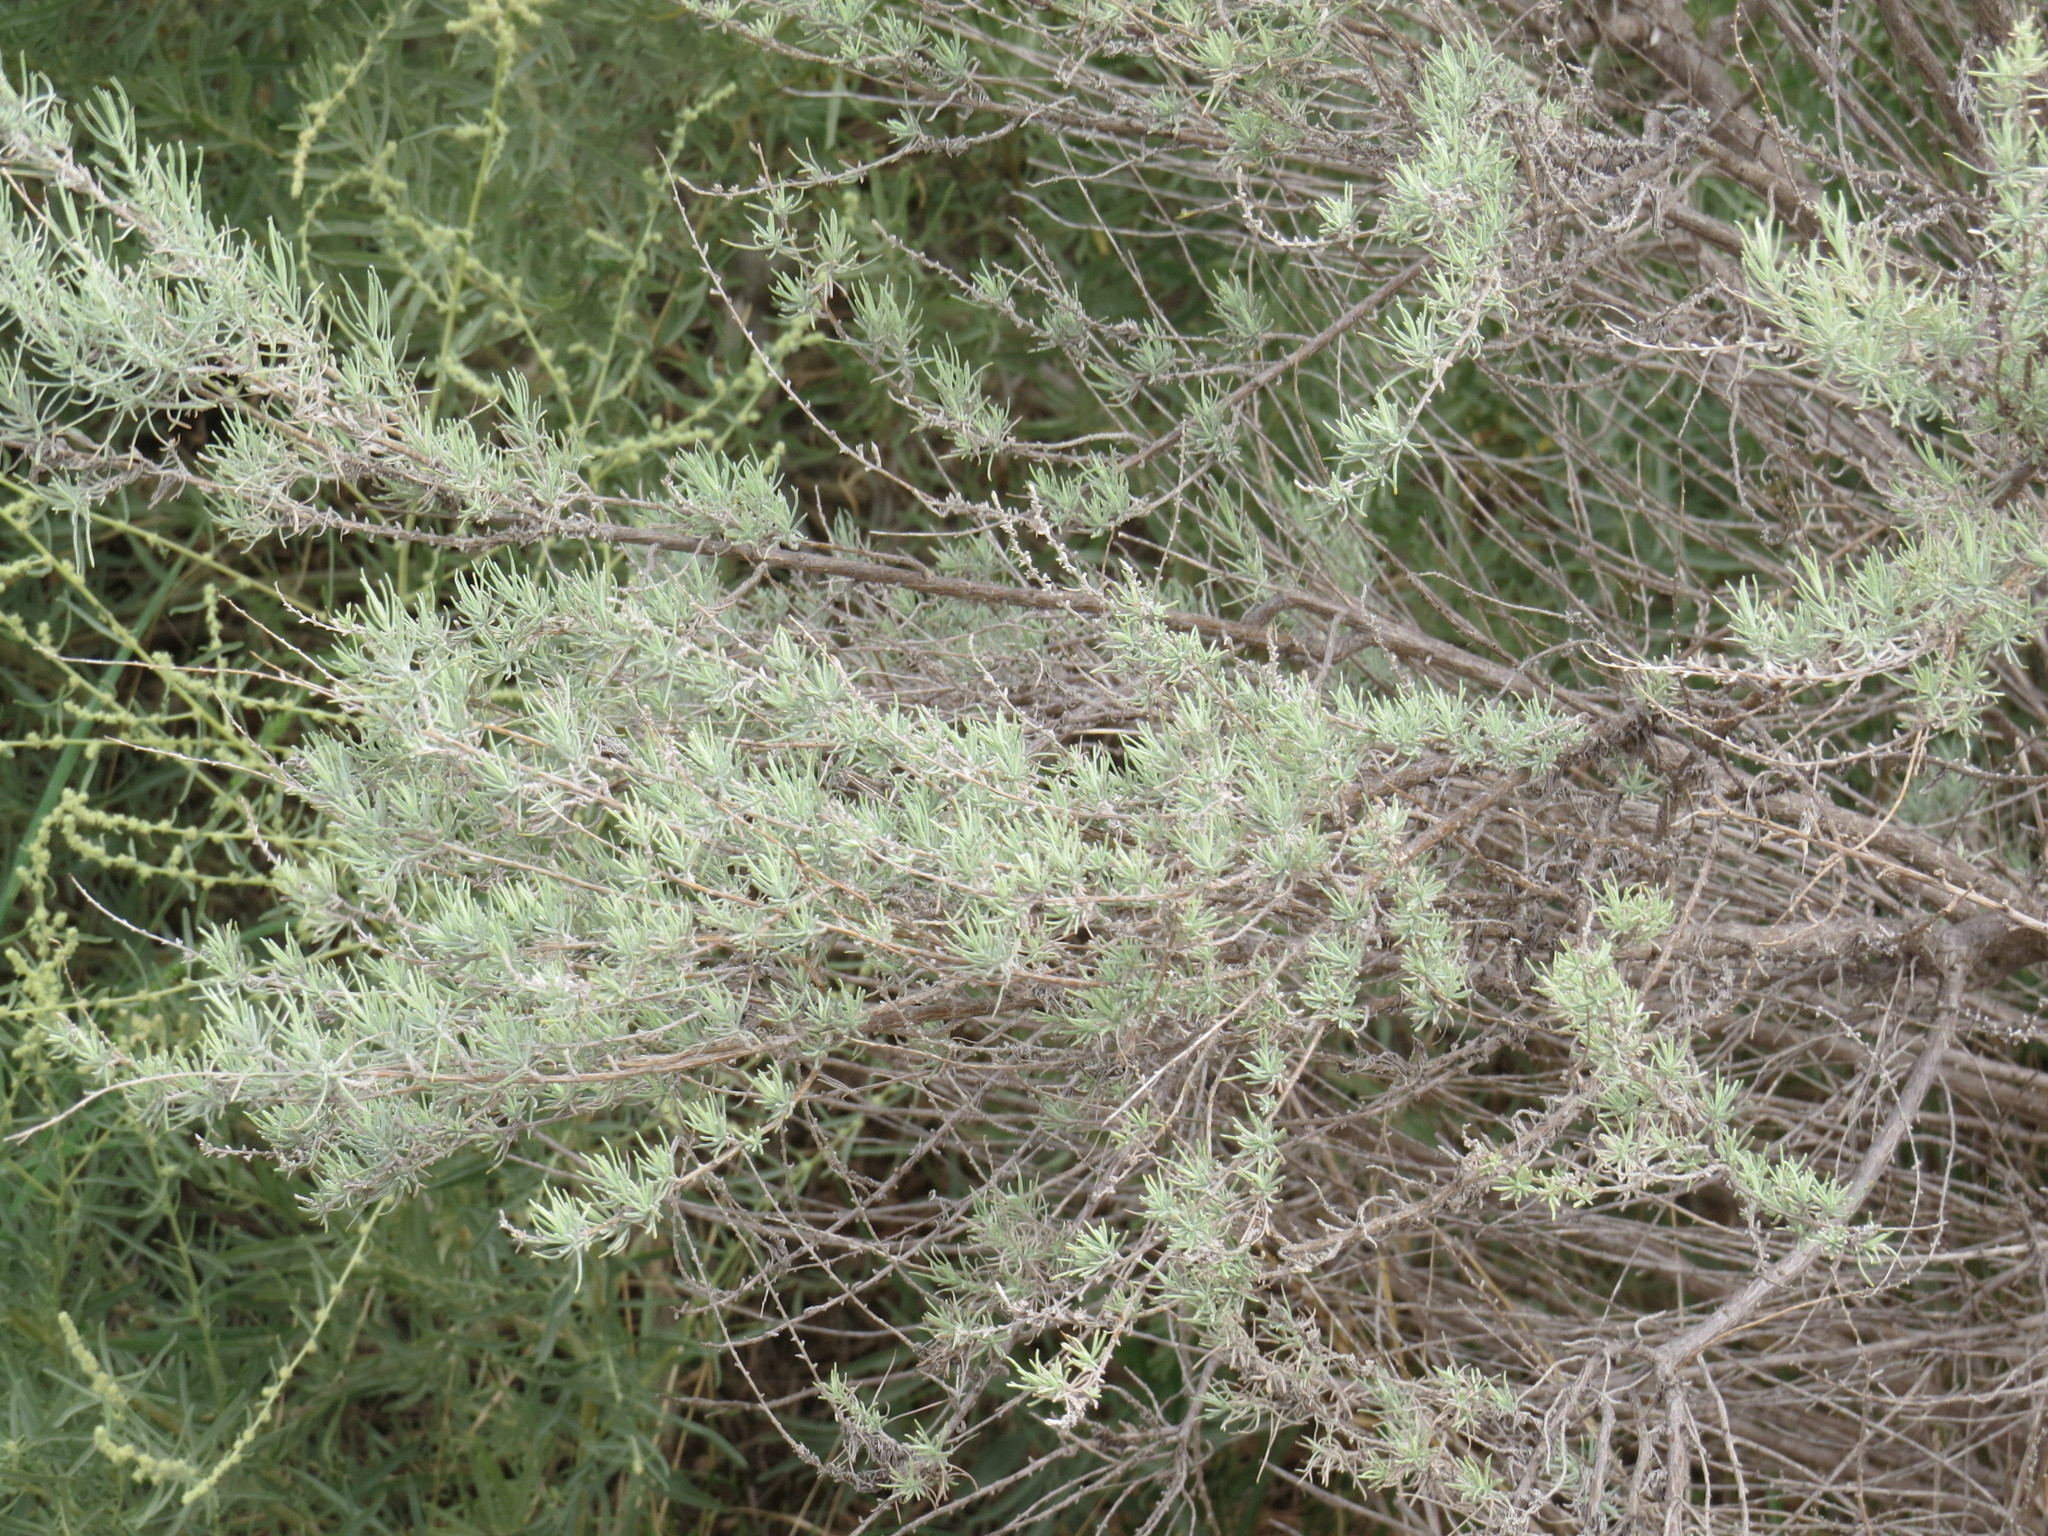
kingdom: Plantae
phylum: Tracheophyta
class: Magnoliopsida
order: Asterales
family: Asteraceae
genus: Artemisia
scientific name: Artemisia filifolia
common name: Sand-sage
